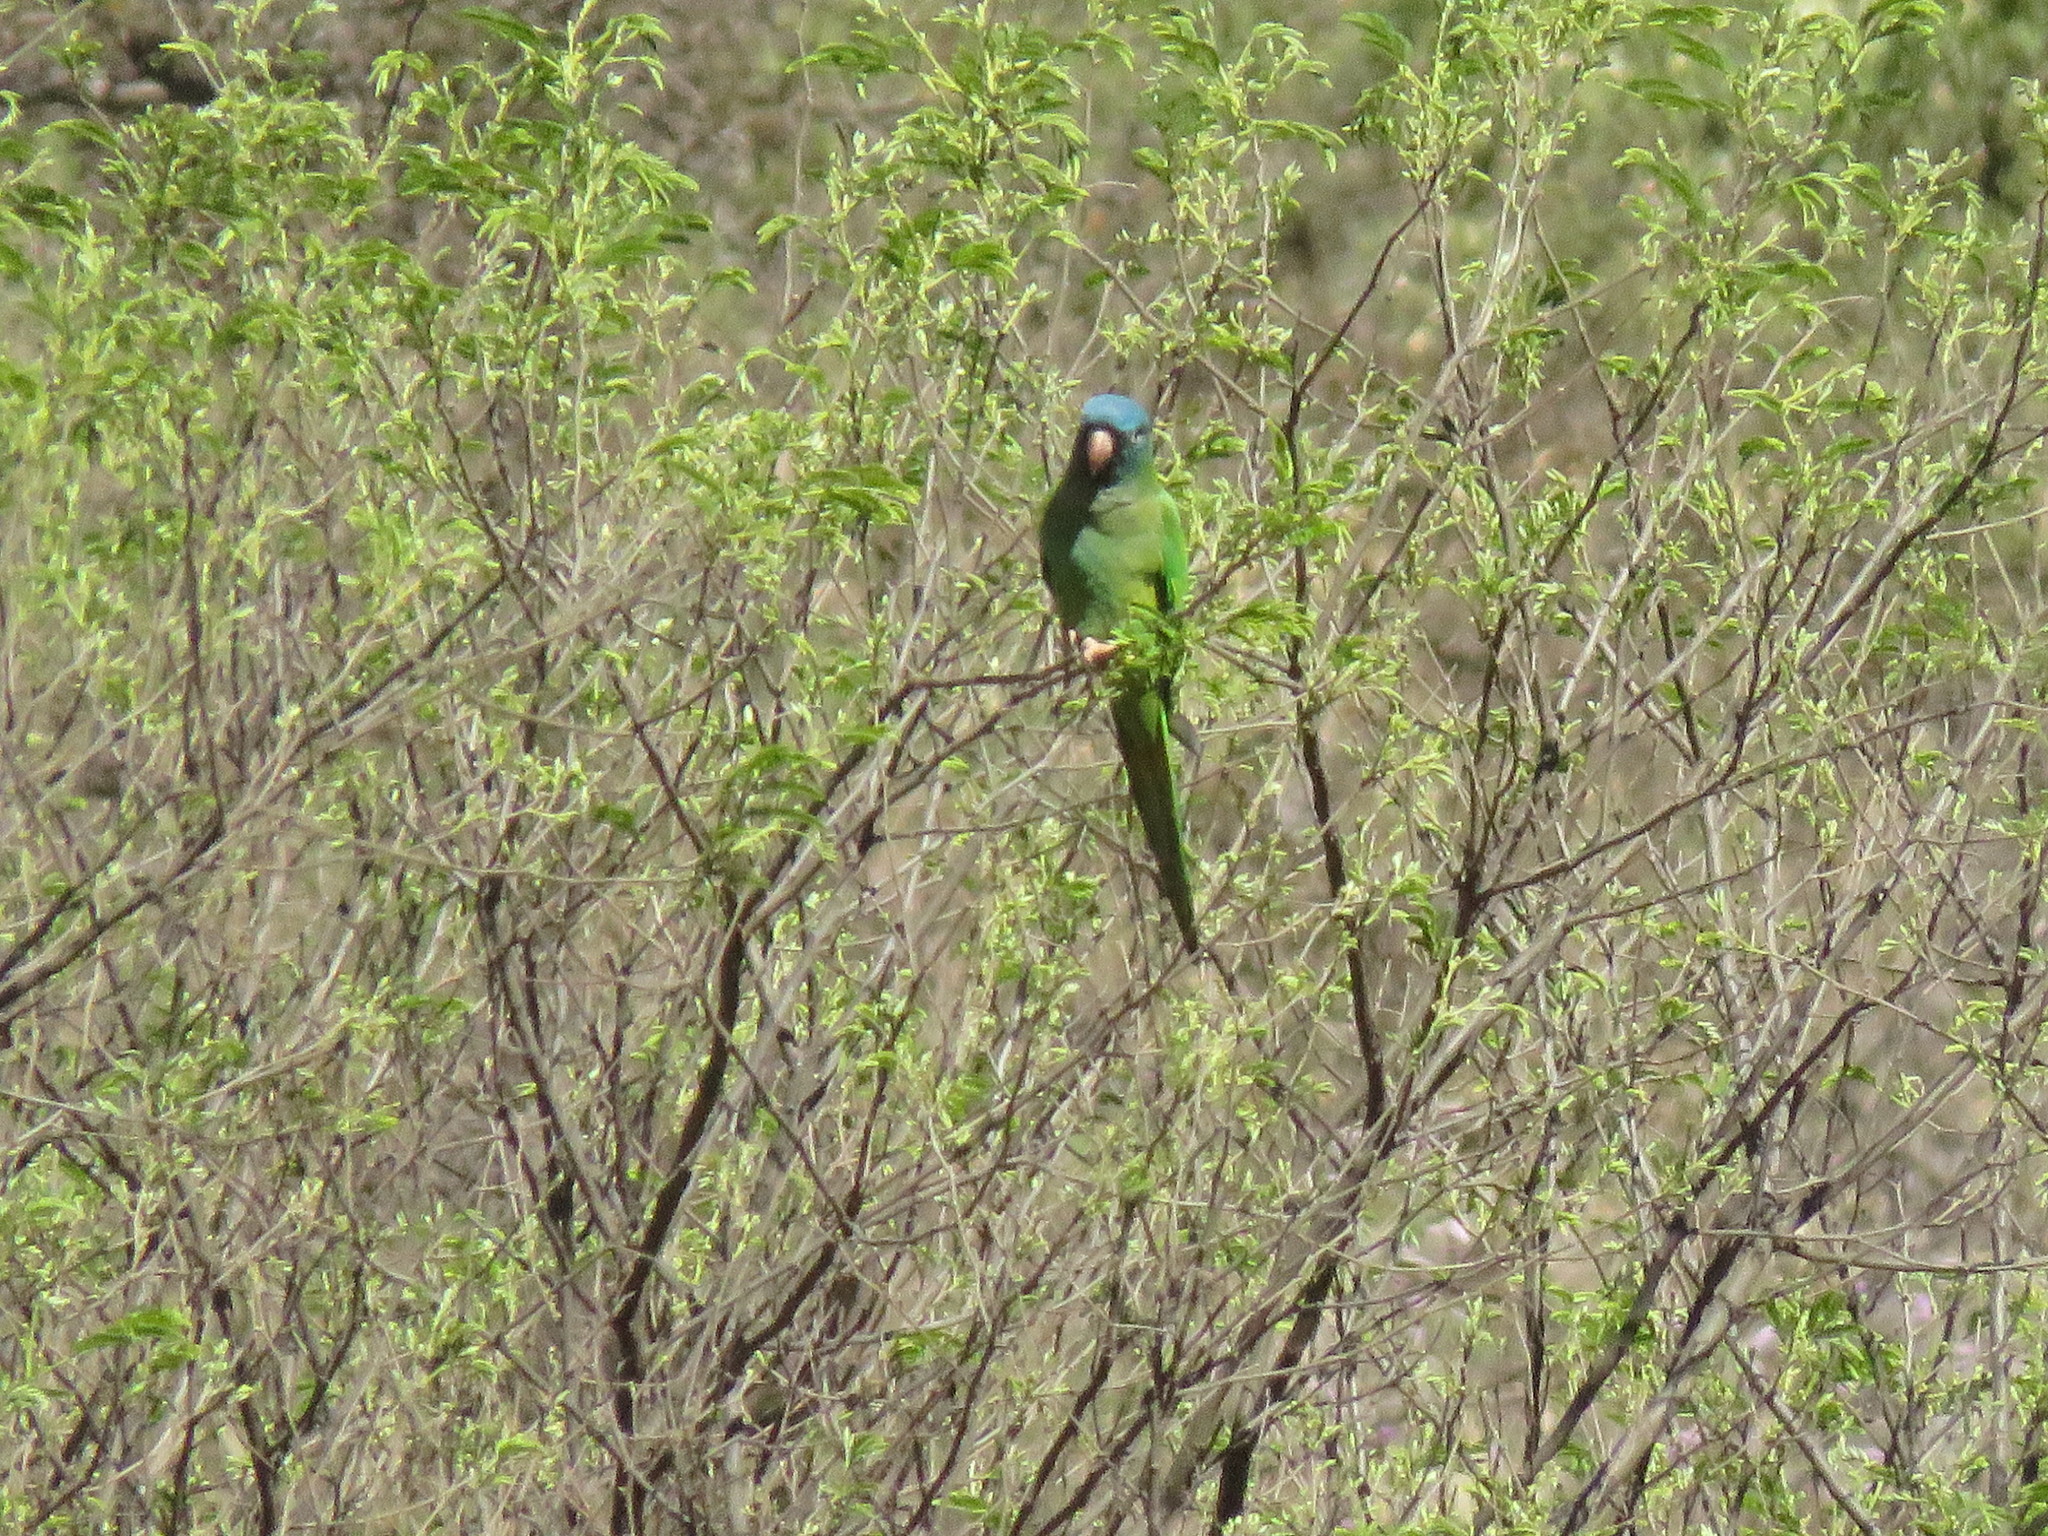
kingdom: Animalia
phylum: Chordata
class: Aves
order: Psittaciformes
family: Psittacidae
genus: Aratinga
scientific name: Aratinga acuticaudata
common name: Blue-crowned parakeet
